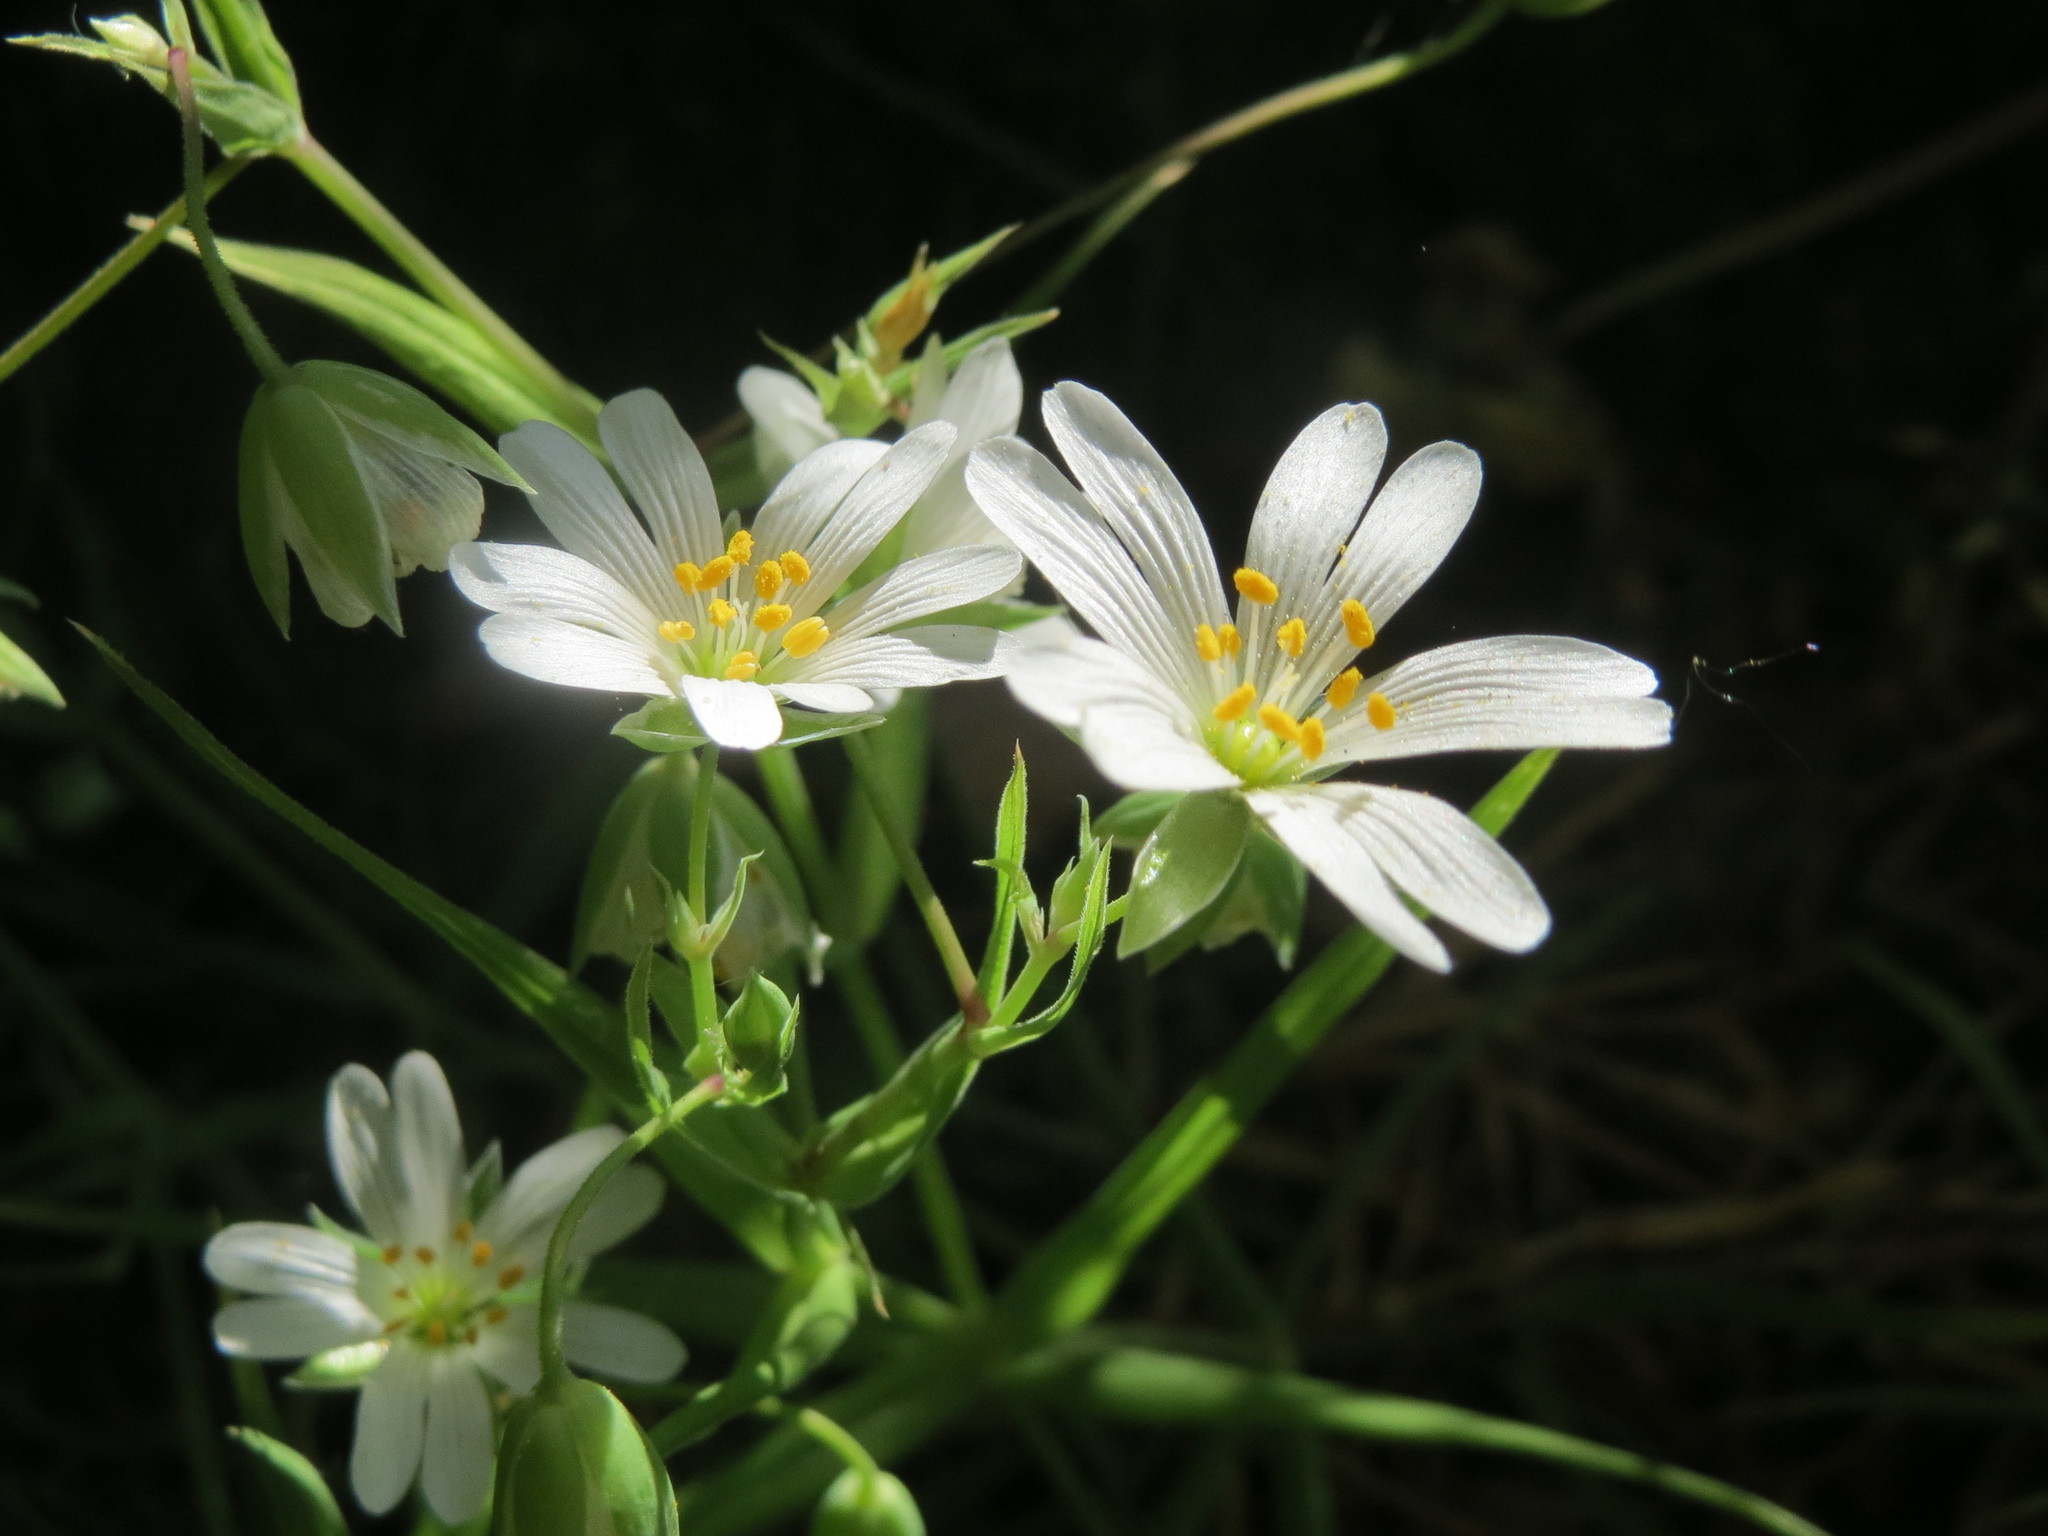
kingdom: Plantae
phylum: Tracheophyta
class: Magnoliopsida
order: Caryophyllales
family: Caryophyllaceae
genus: Rabelera
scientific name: Rabelera holostea
